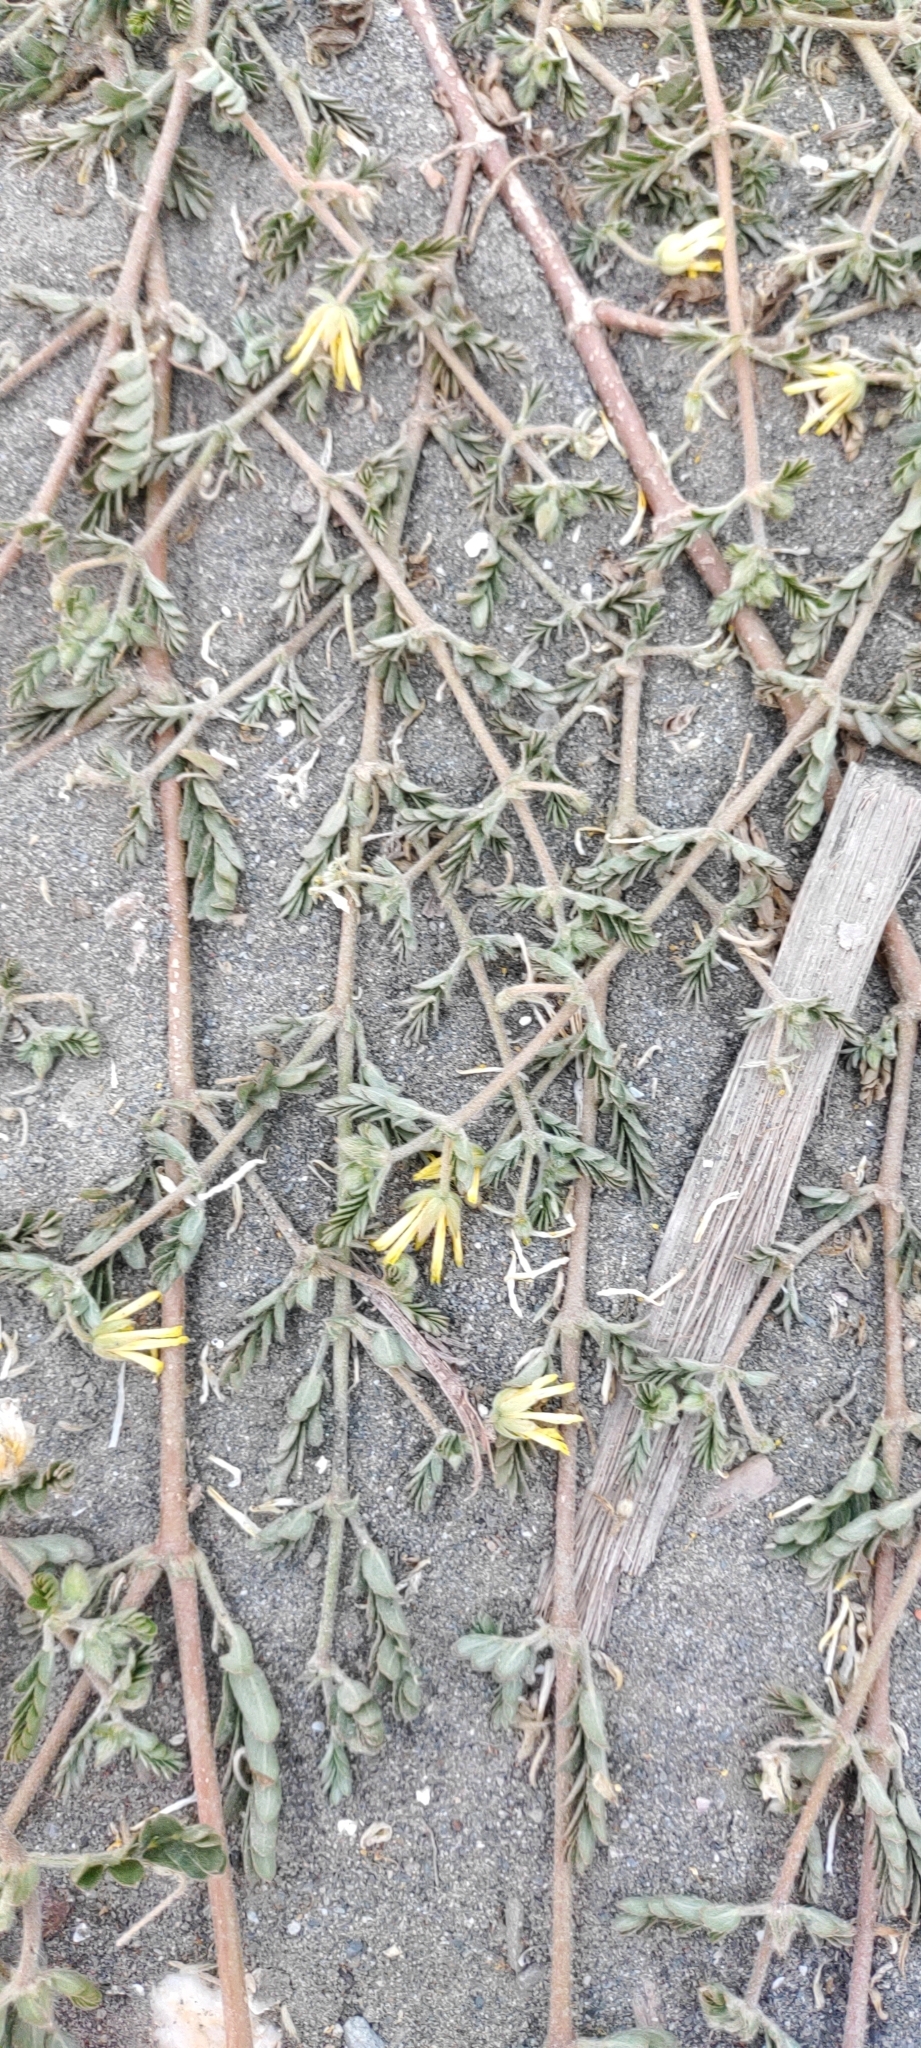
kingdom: Plantae
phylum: Tracheophyta
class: Magnoliopsida
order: Zygophyllales
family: Zygophyllaceae
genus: Tribulus
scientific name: Tribulus cistoides
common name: Jamaican feverplant
